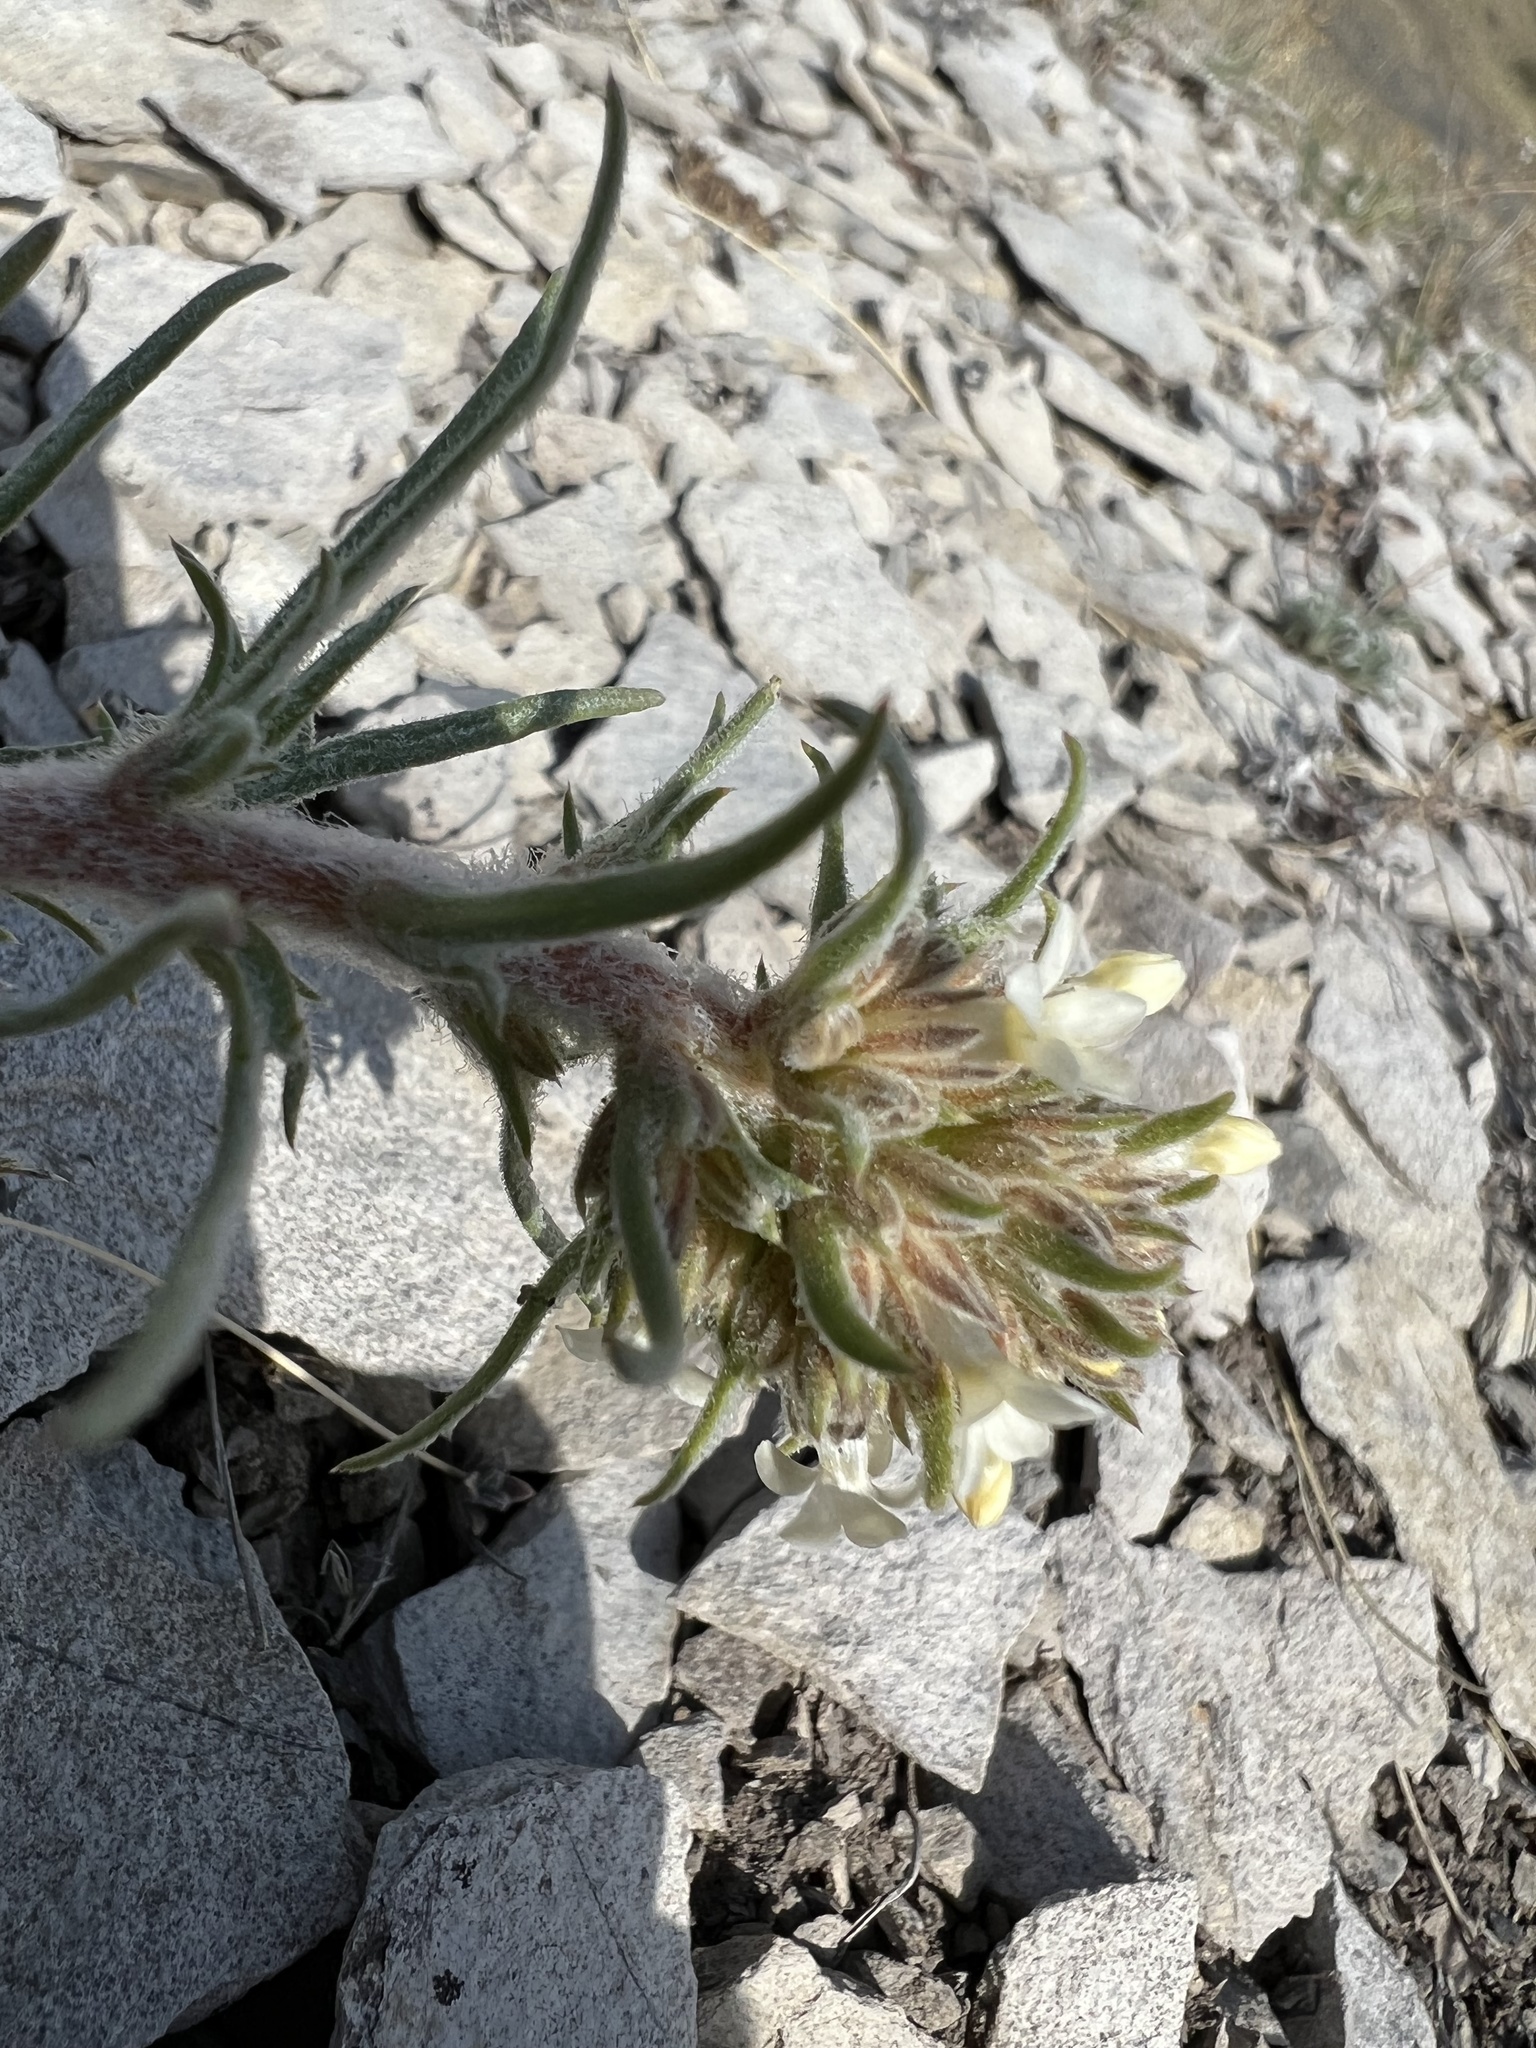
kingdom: Plantae
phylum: Tracheophyta
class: Magnoliopsida
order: Ericales
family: Polemoniaceae
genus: Ipomopsis
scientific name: Ipomopsis spicata
